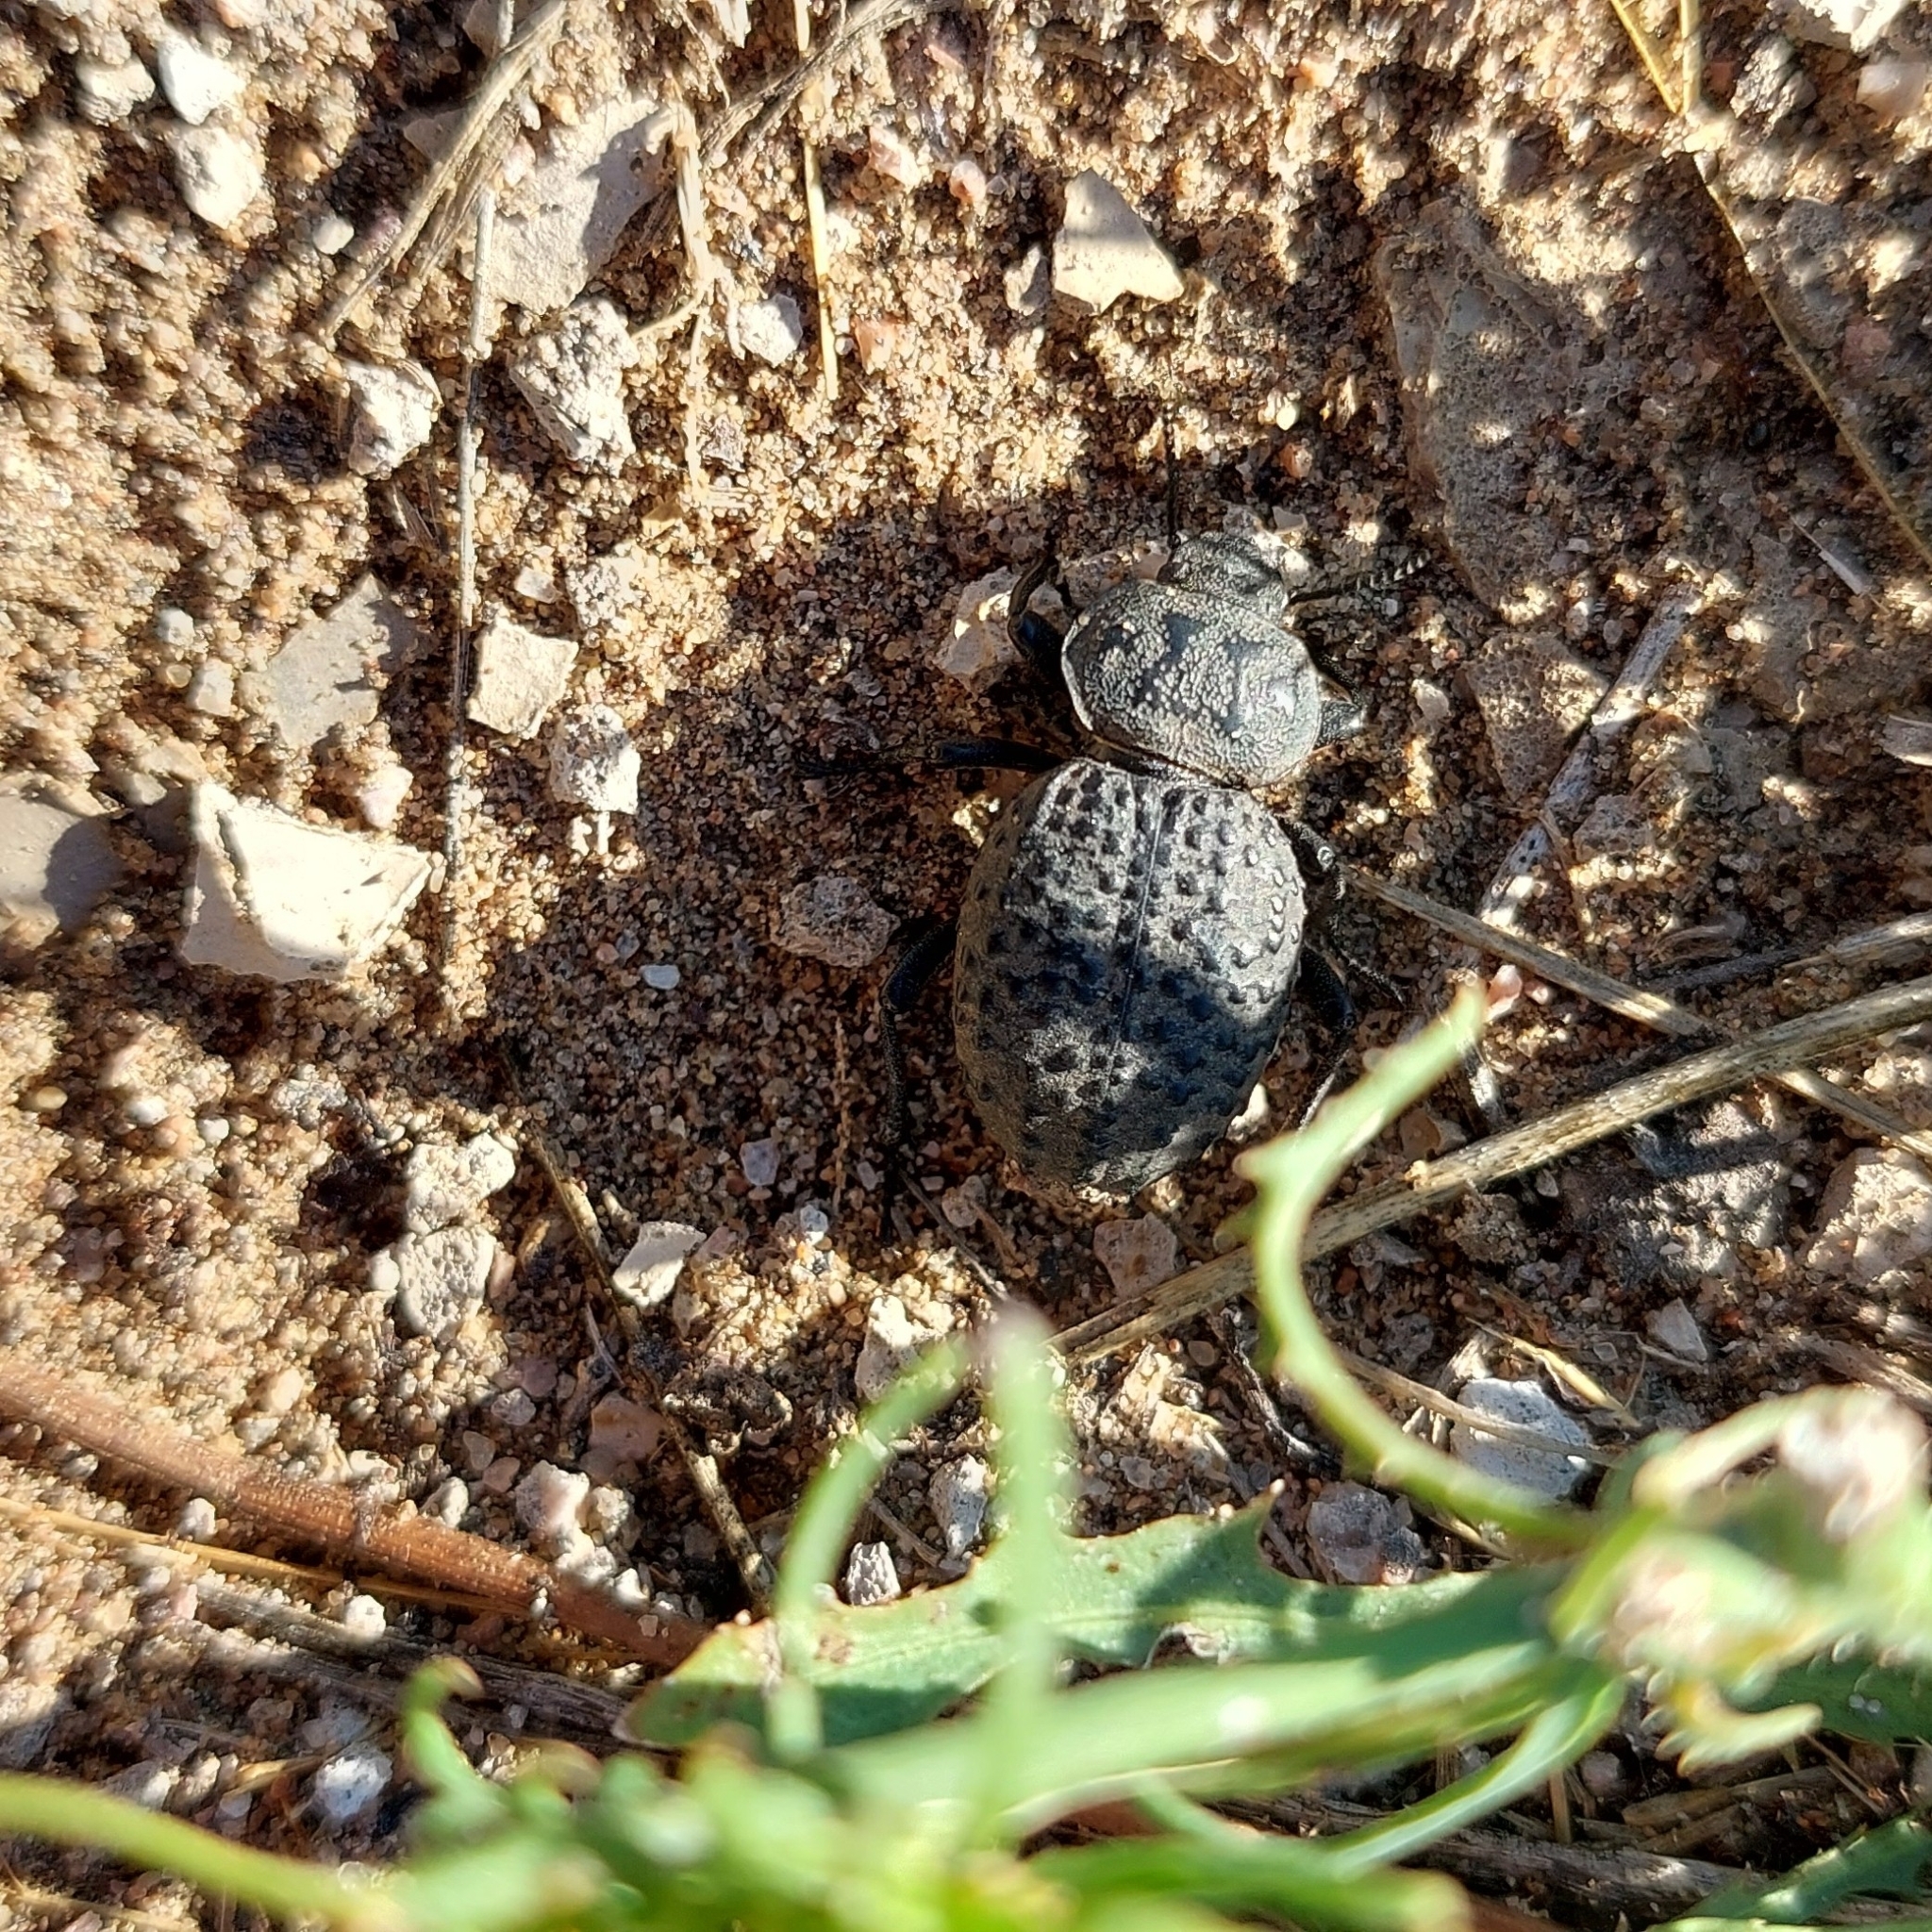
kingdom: Animalia
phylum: Arthropoda
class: Insecta
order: Coleoptera
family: Tenebrionidae
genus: Scotobius
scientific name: Scotobius pilularius
